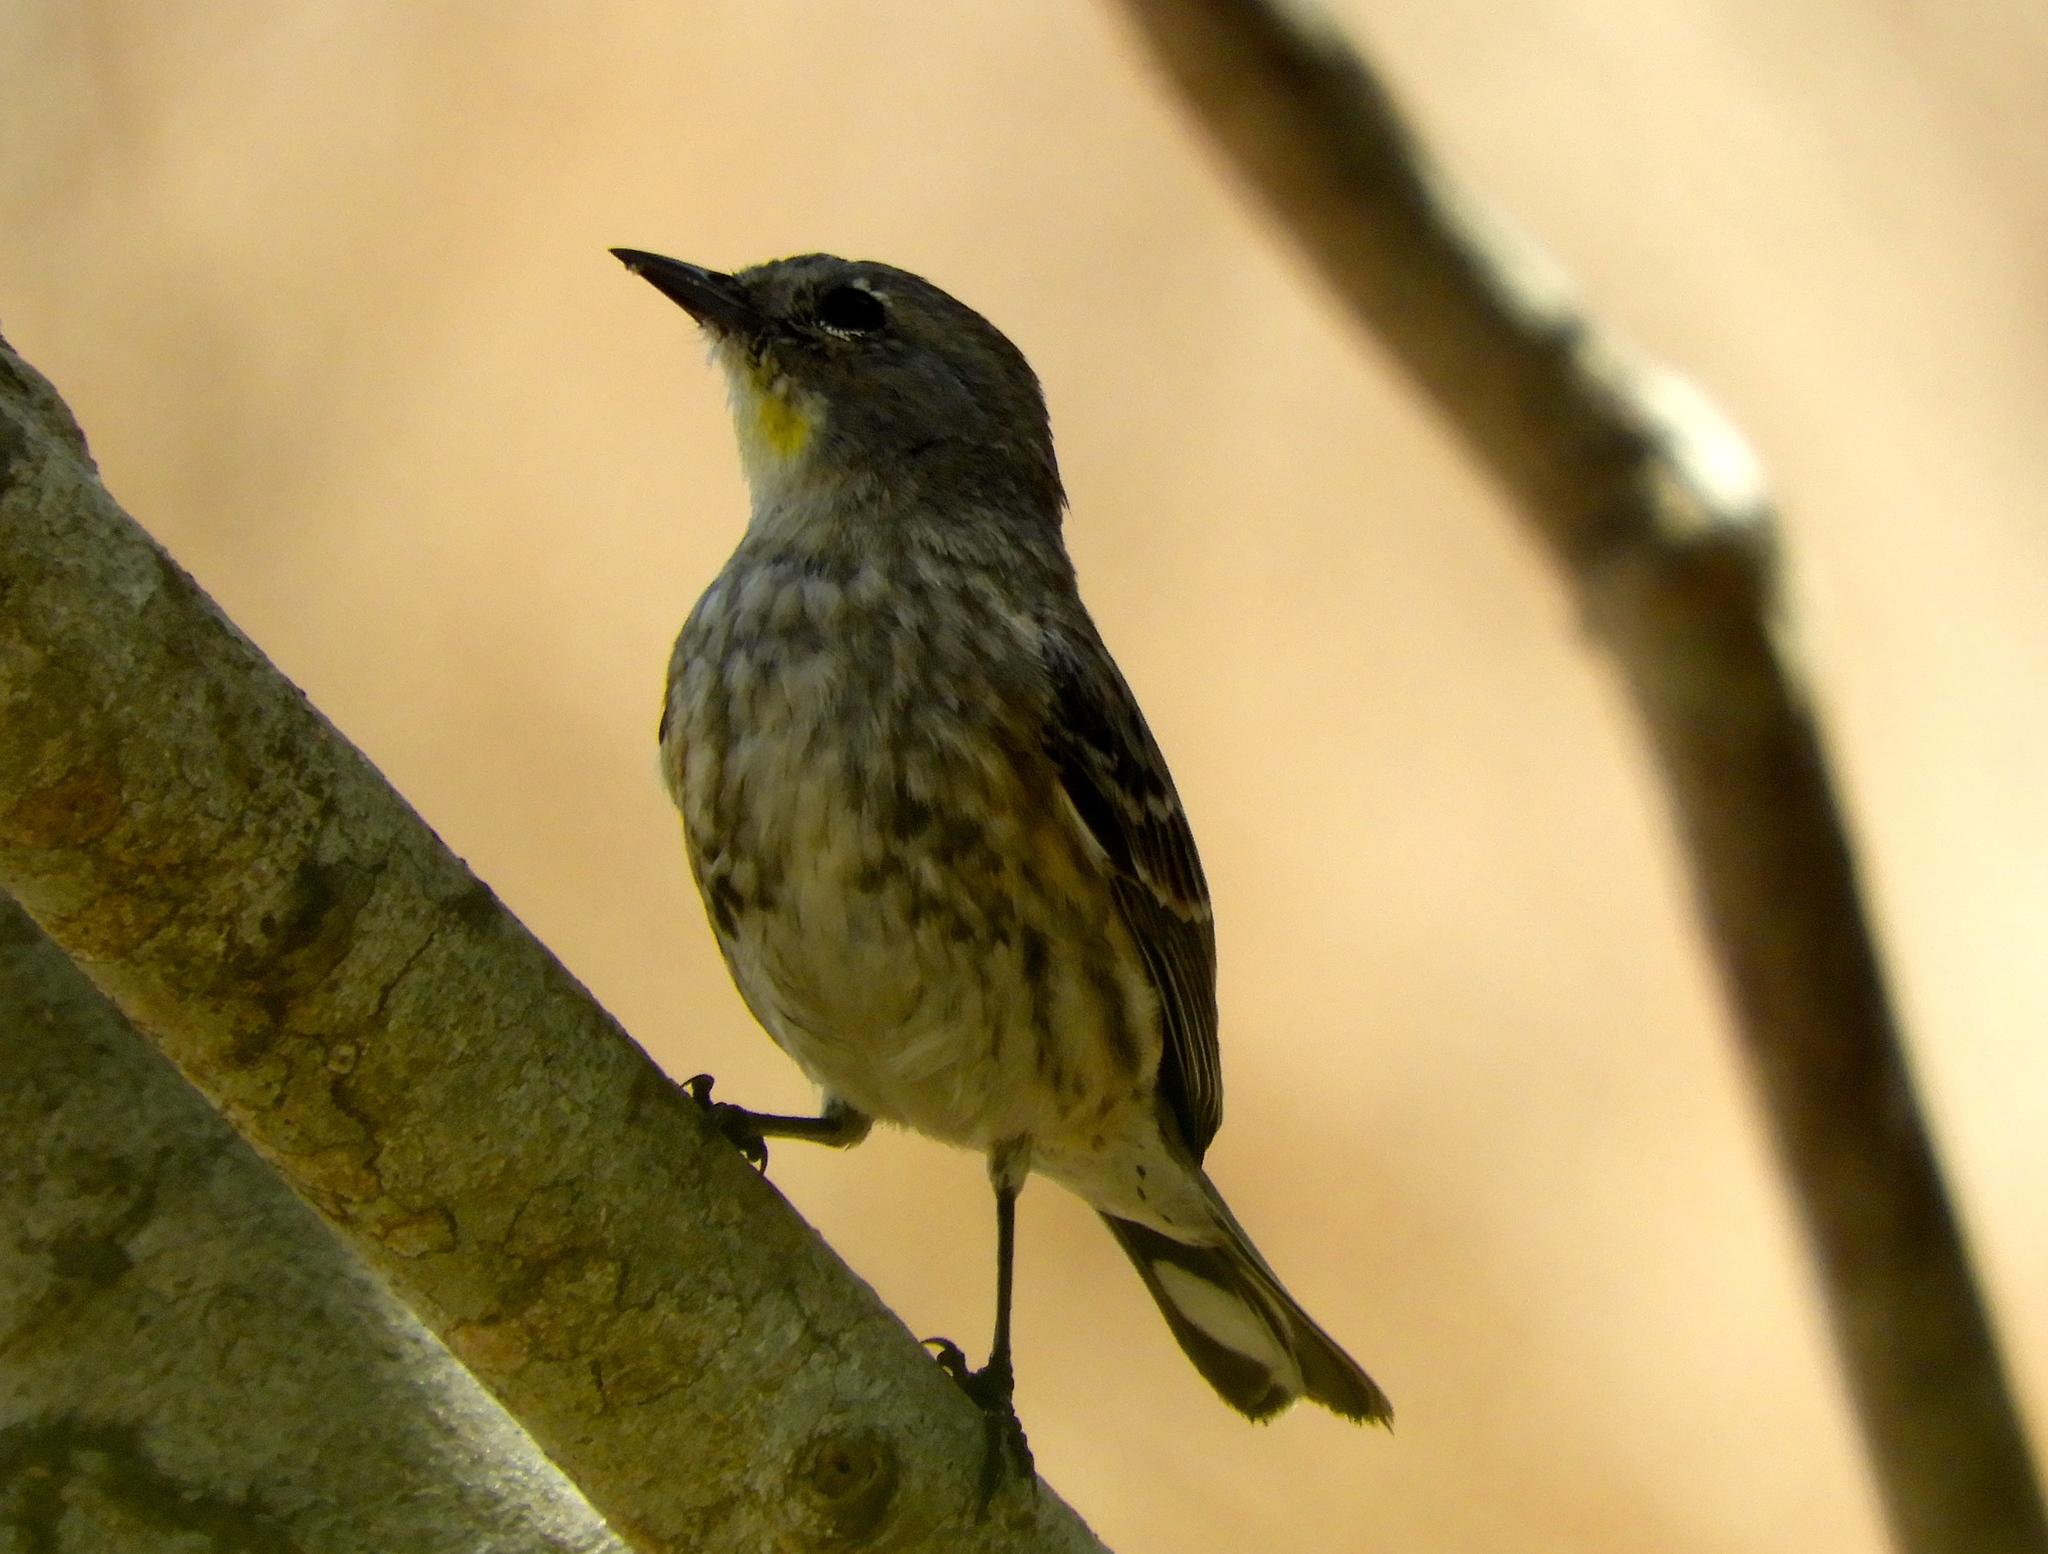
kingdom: Animalia
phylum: Chordata
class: Aves
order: Passeriformes
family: Parulidae
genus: Setophaga
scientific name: Setophaga auduboni
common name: Audubon's warbler
